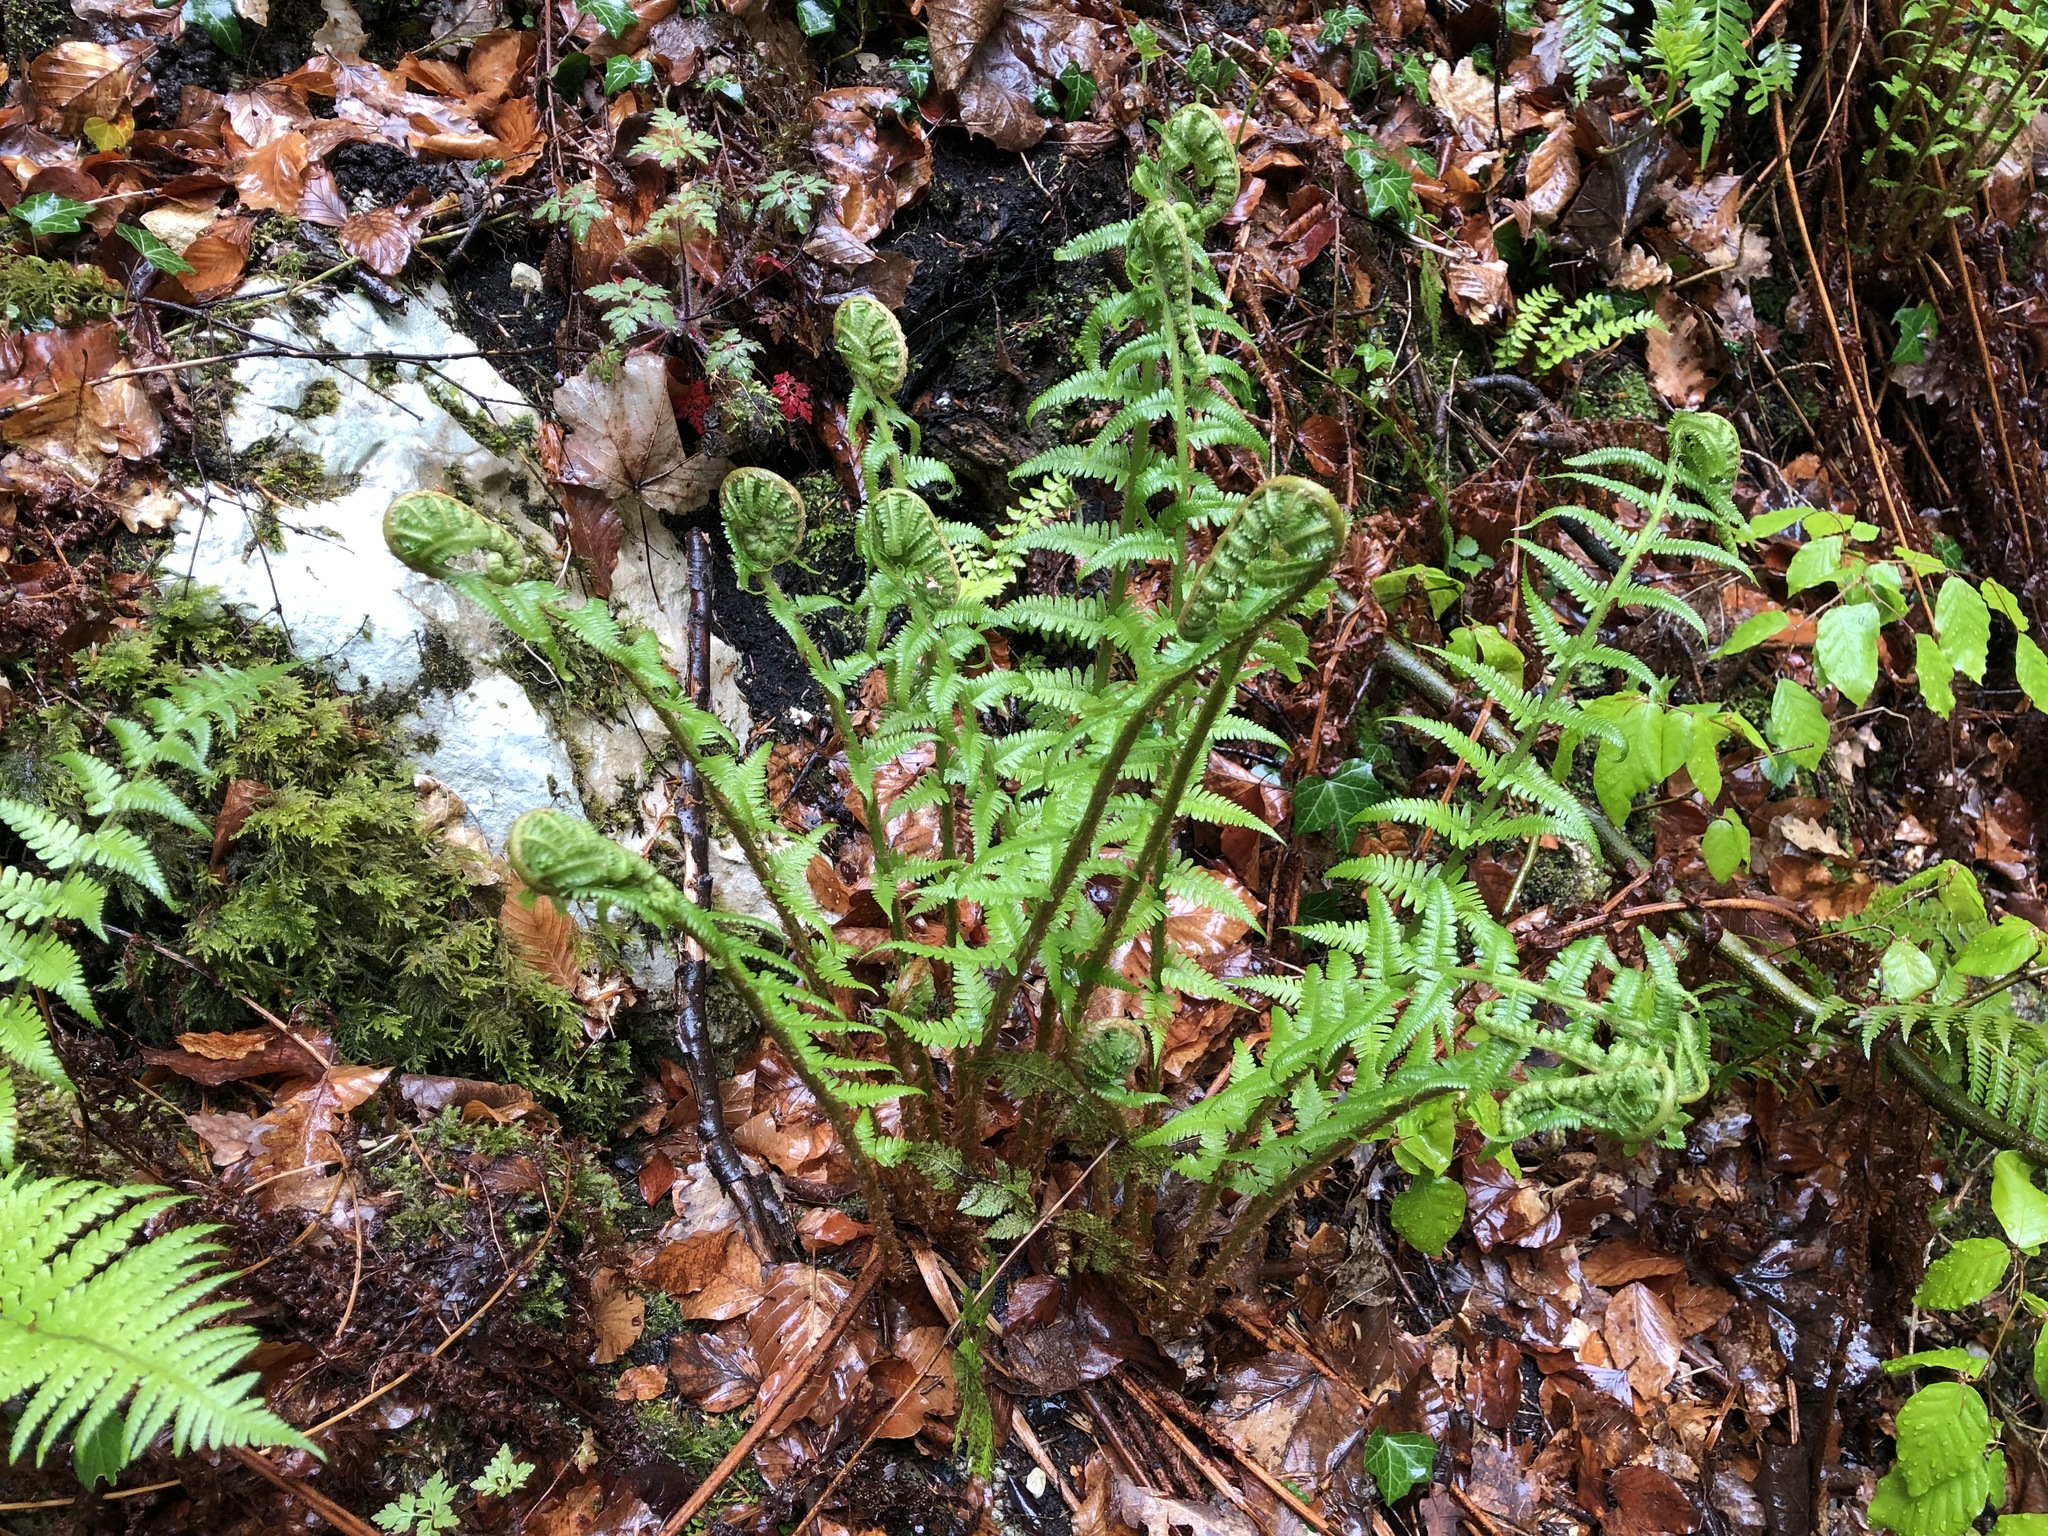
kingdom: Plantae
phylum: Tracheophyta
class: Polypodiopsida
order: Polypodiales
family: Dryopteridaceae
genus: Dryopteris
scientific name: Dryopteris filix-mas
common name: Male fern
